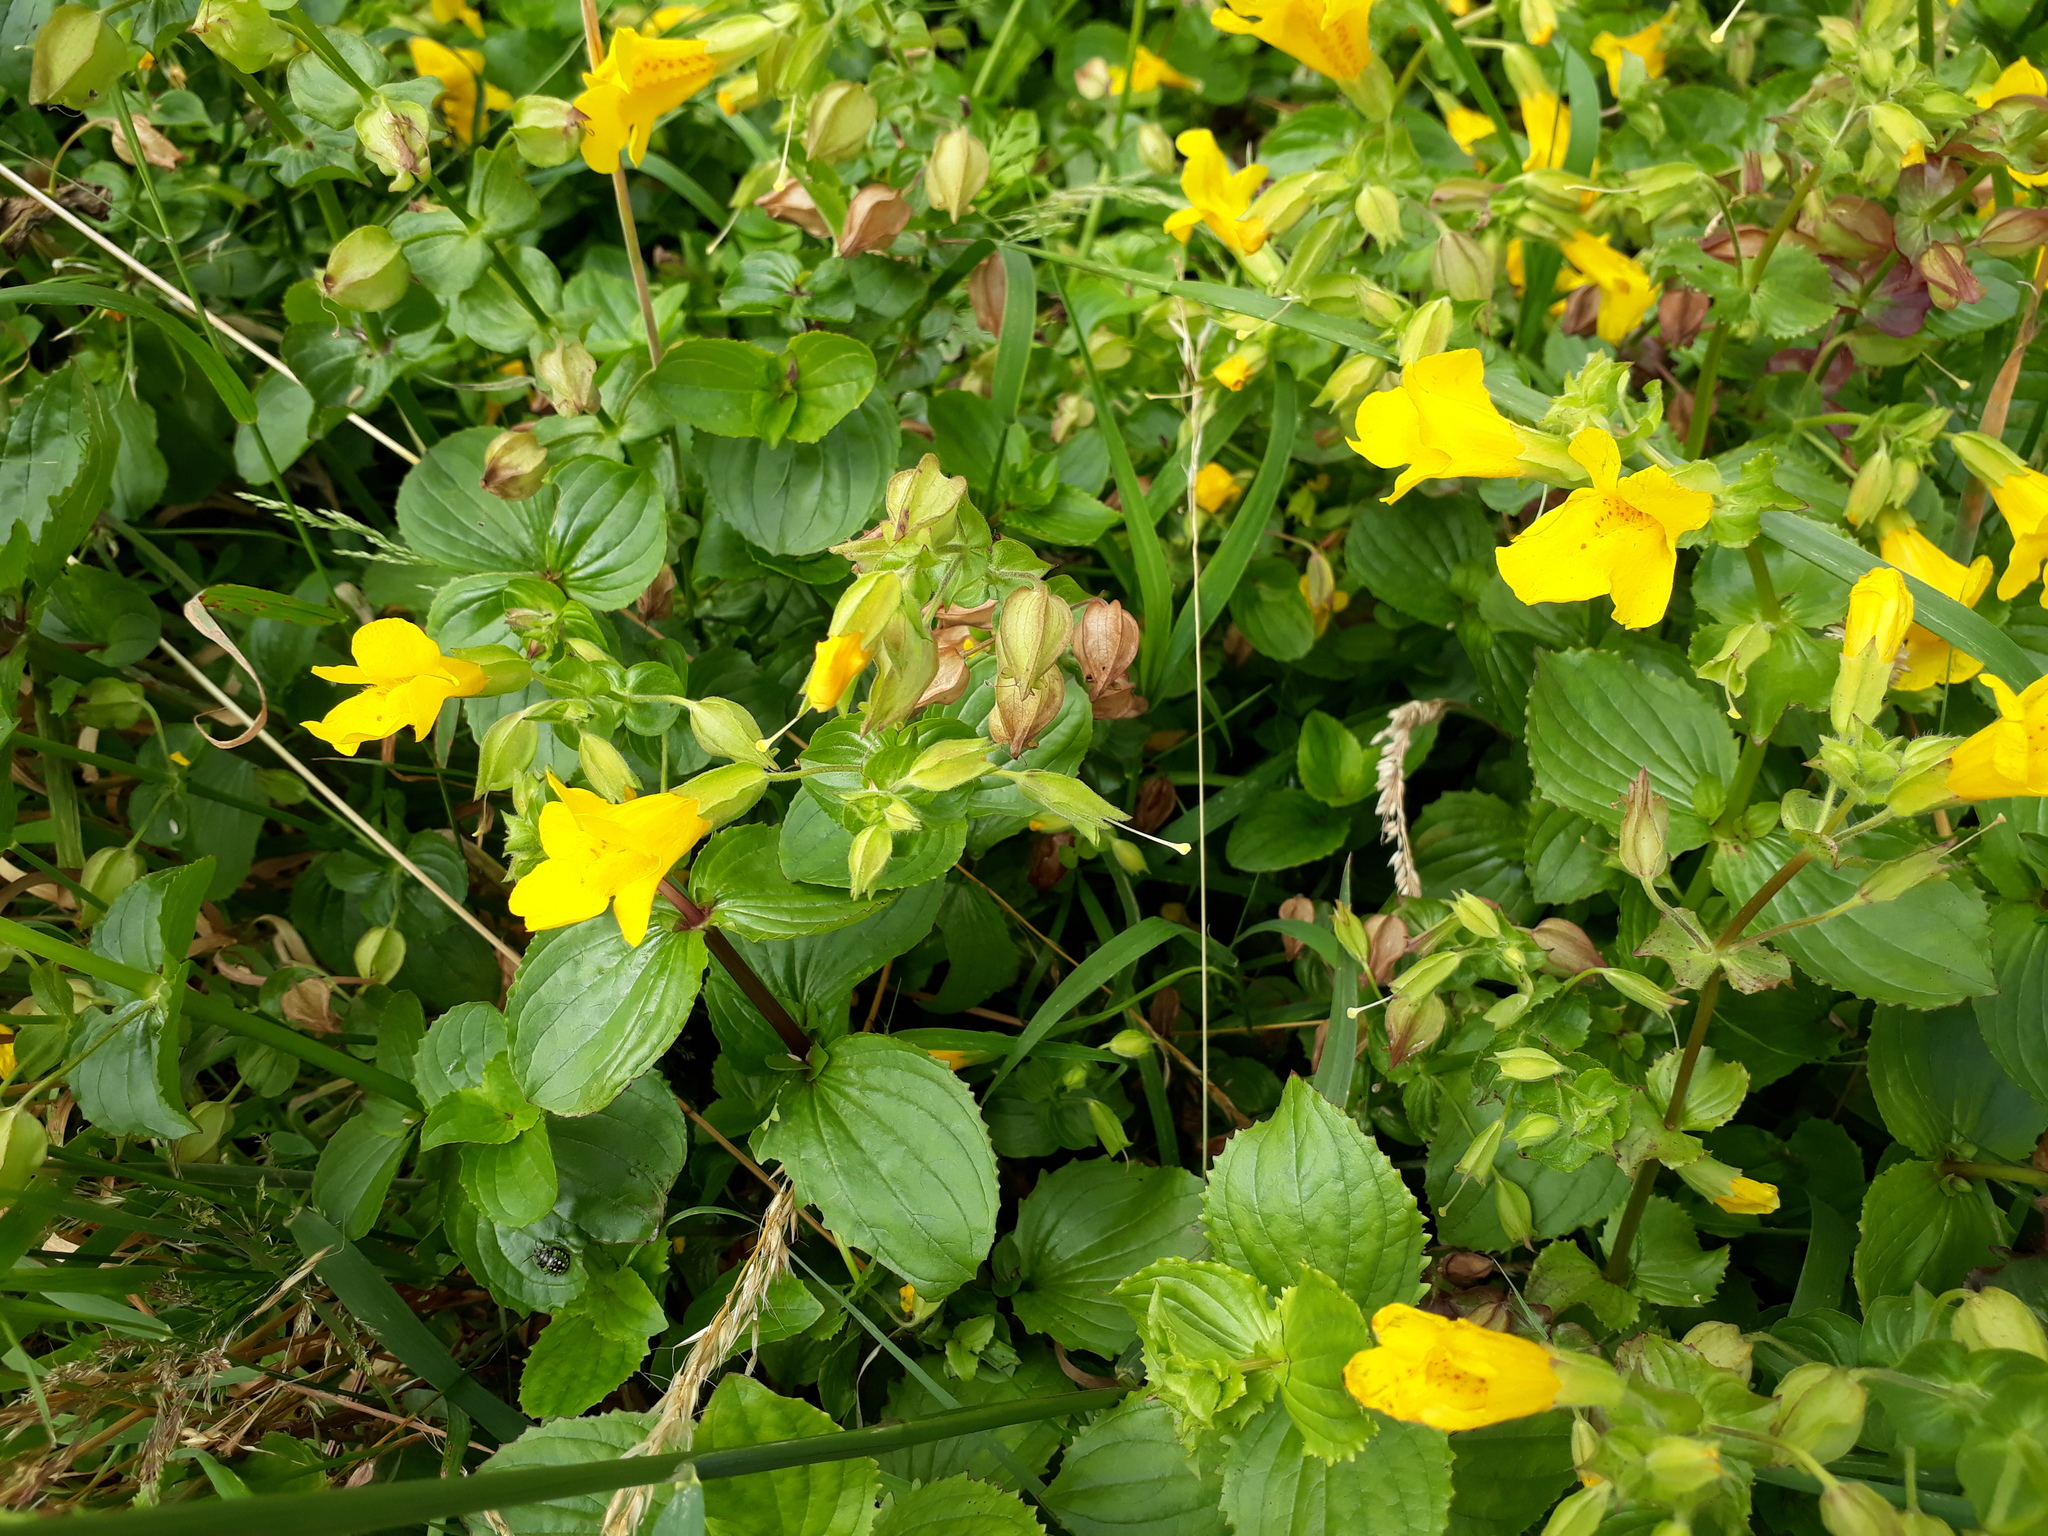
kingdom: Plantae
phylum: Tracheophyta
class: Magnoliopsida
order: Lamiales
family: Phrymaceae
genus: Erythranthe
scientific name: Erythranthe guttata
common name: Monkeyflower
